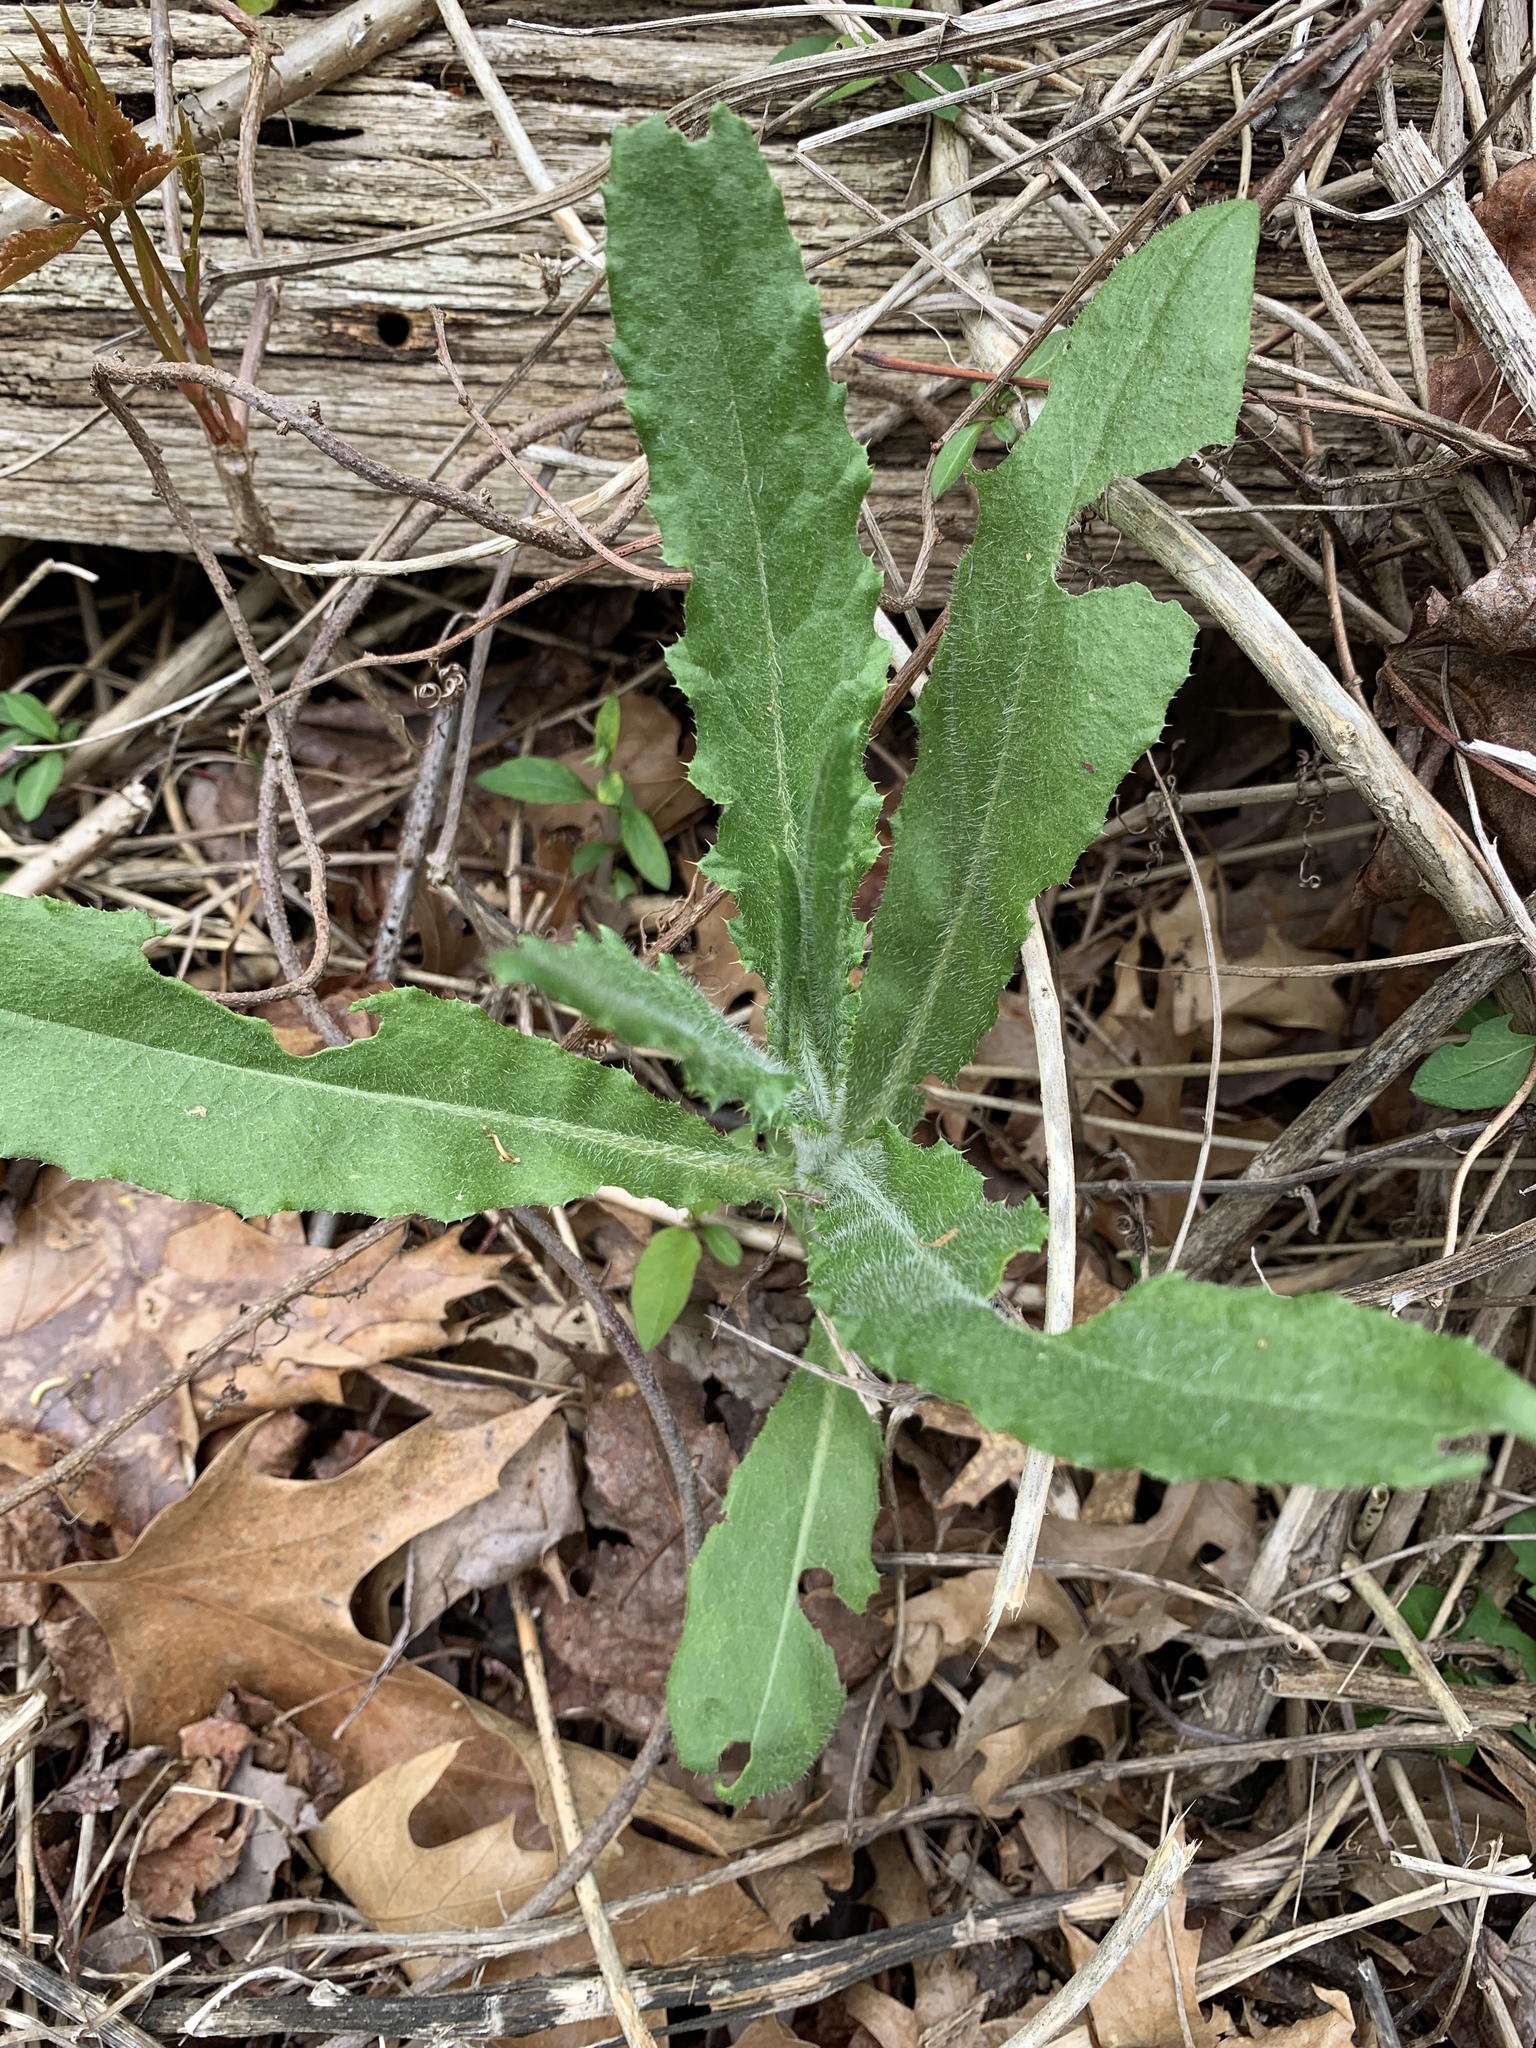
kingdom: Plantae
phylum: Tracheophyta
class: Magnoliopsida
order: Asterales
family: Asteraceae
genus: Cirsium
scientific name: Cirsium arvense
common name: Creeping thistle
